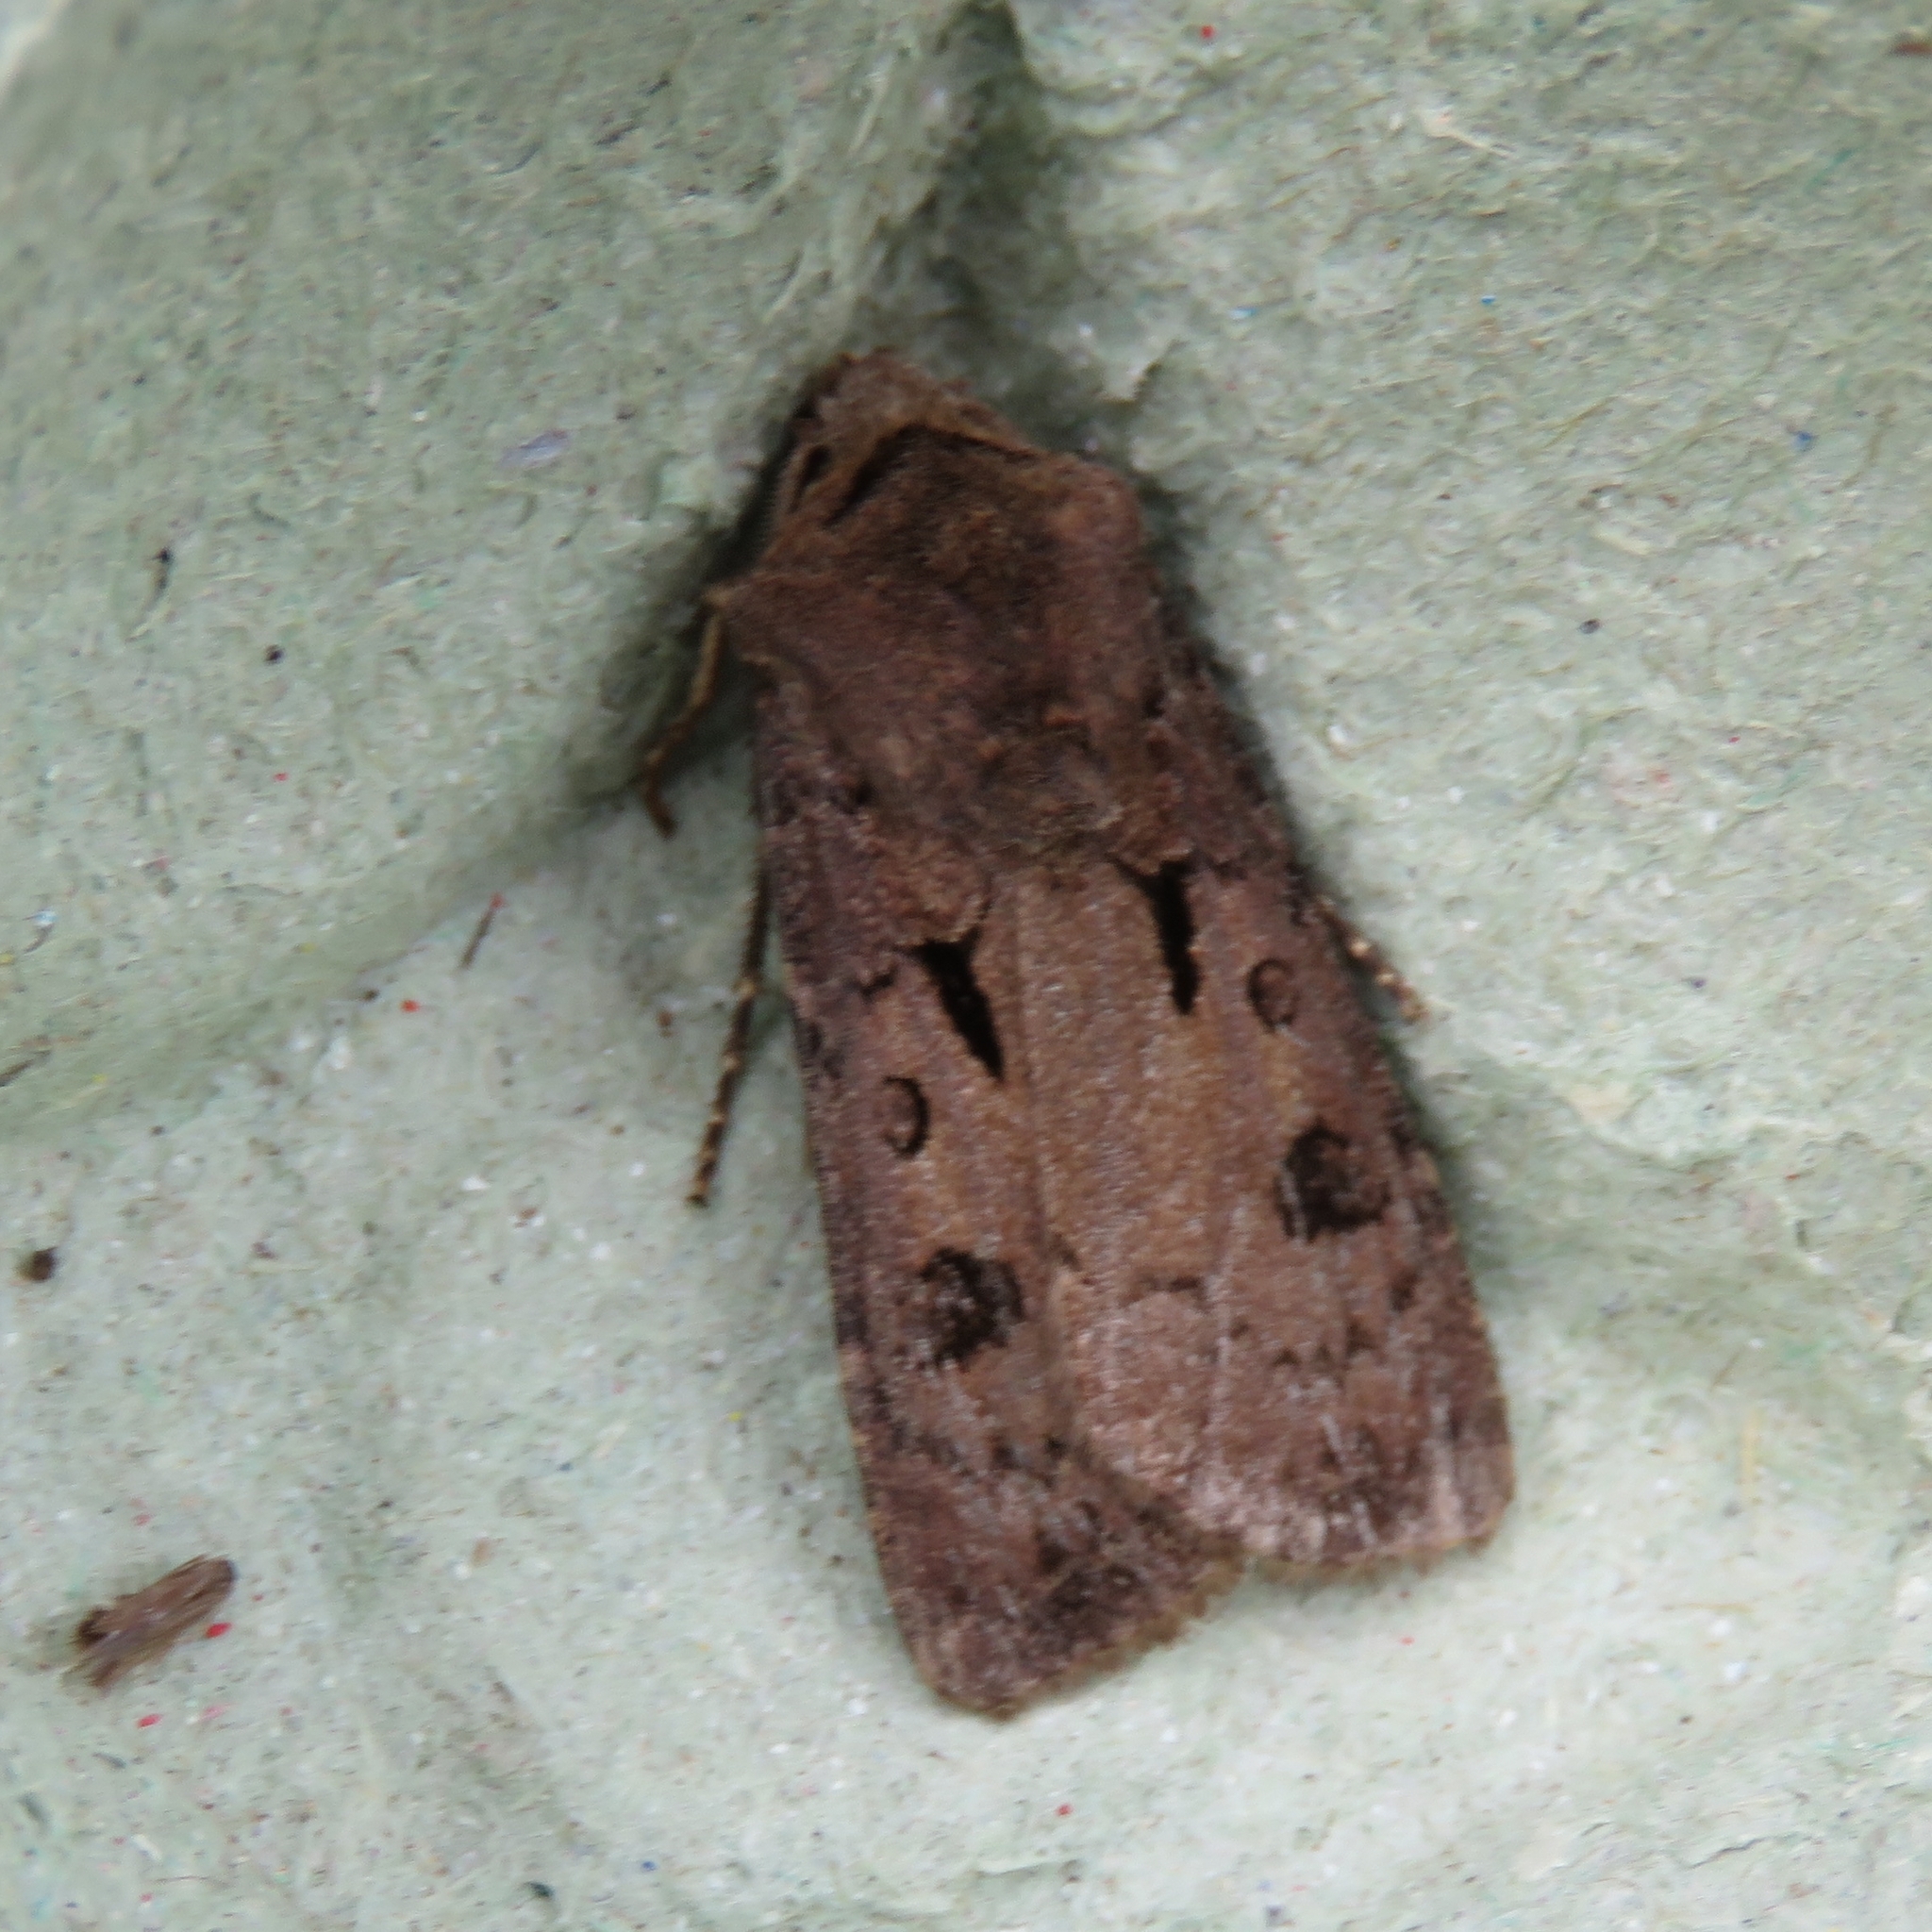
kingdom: Animalia
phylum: Arthropoda
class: Insecta
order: Lepidoptera
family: Noctuidae
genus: Agrotis
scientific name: Agrotis exclamationis
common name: Heart and dart
